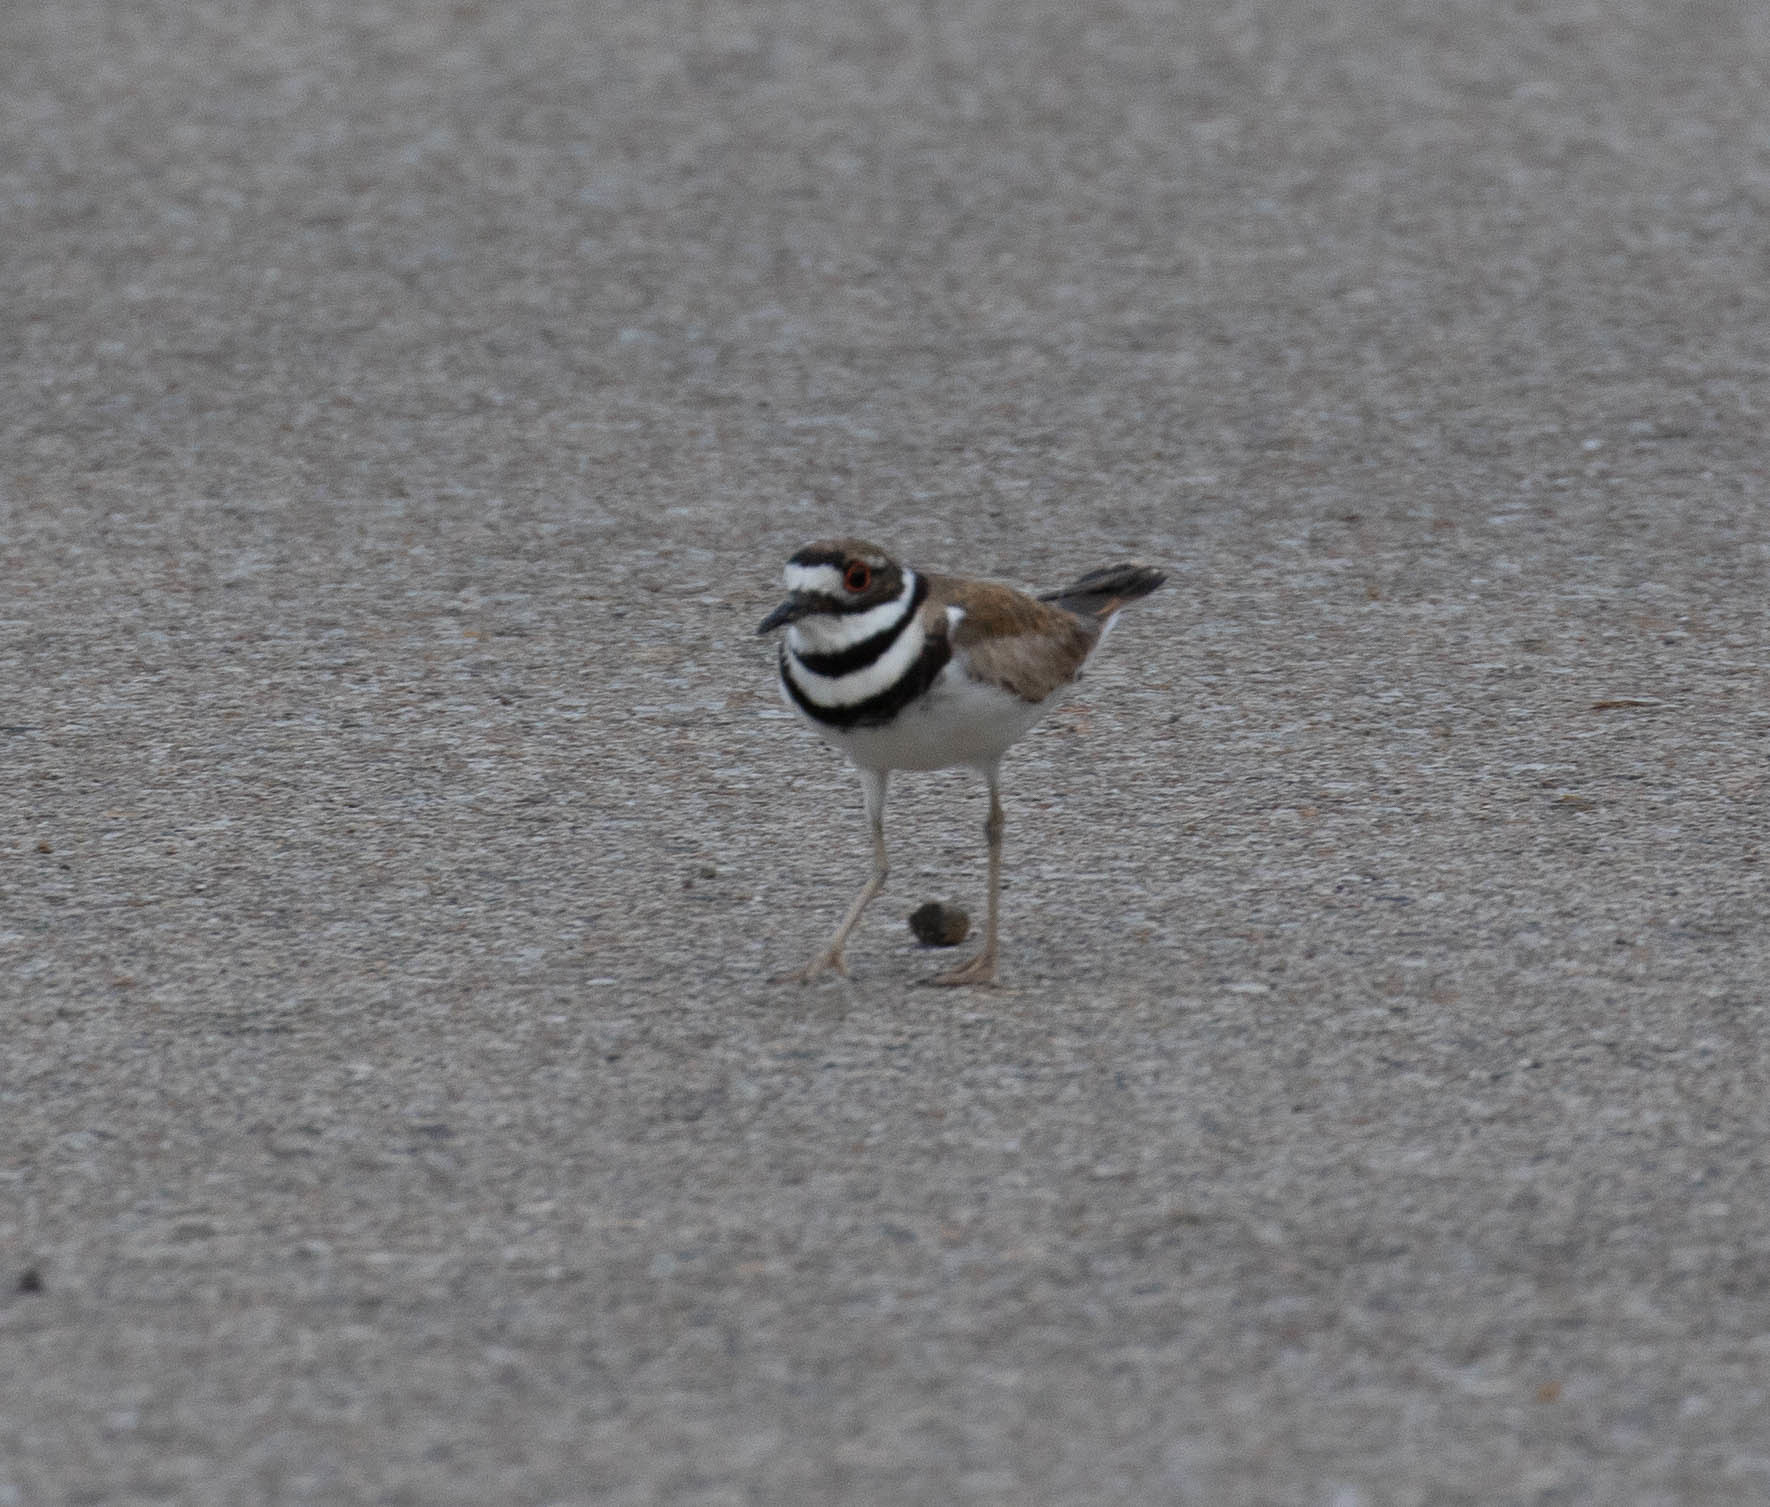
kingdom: Animalia
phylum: Chordata
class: Aves
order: Charadriiformes
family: Charadriidae
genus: Charadrius
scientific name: Charadrius vociferus
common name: Killdeer
